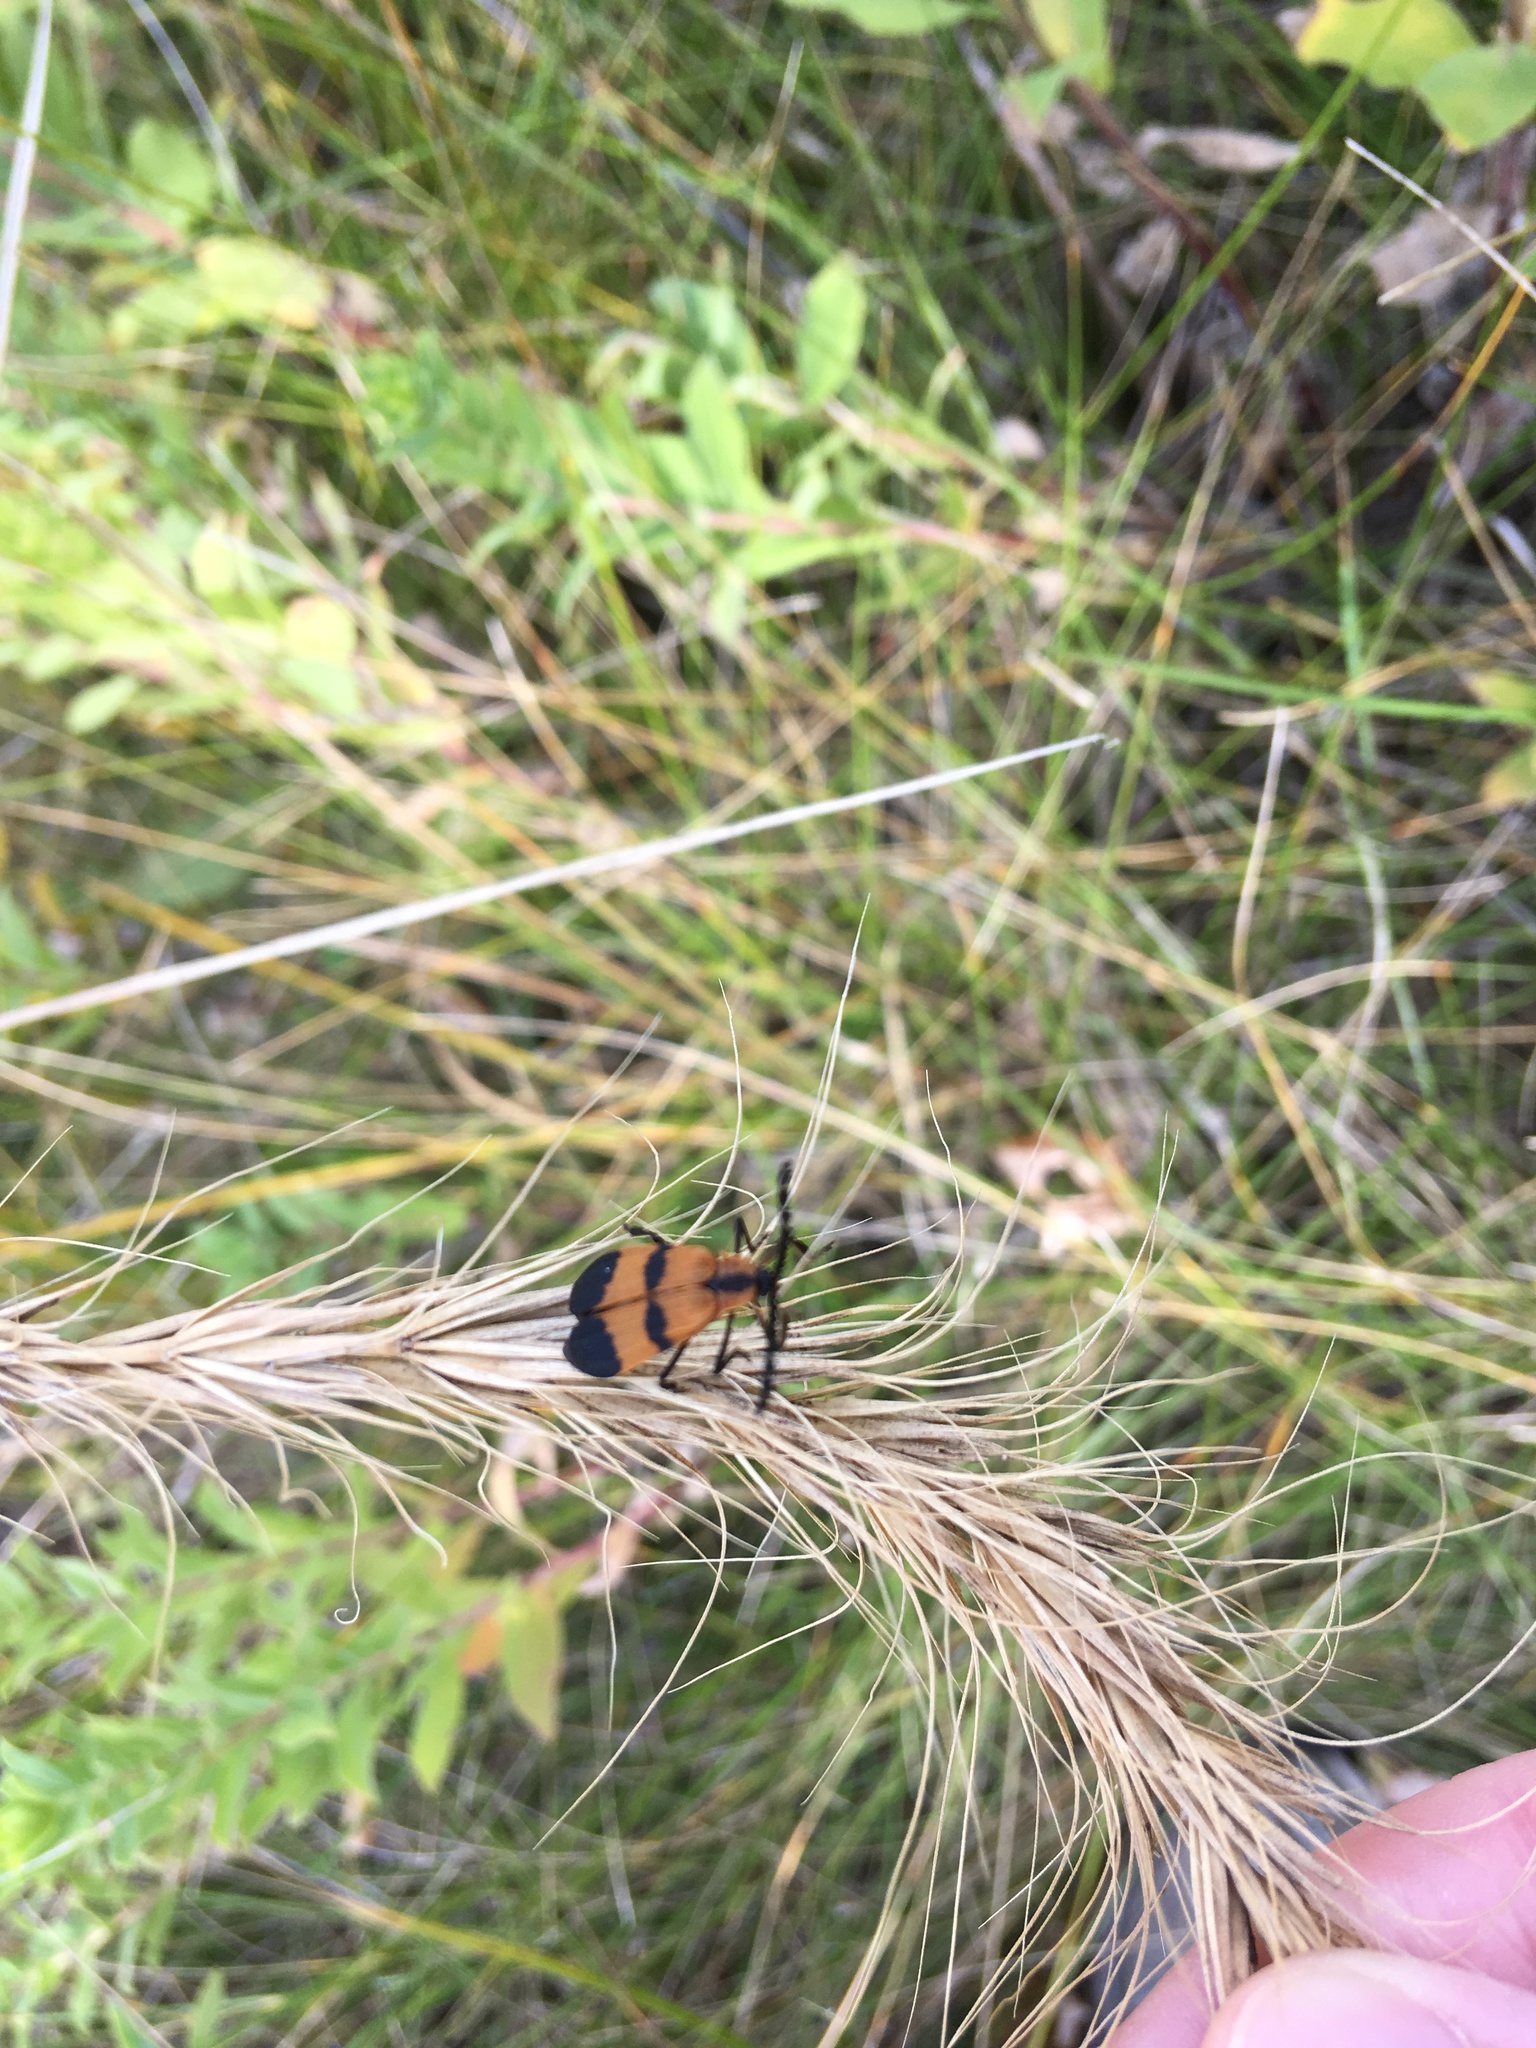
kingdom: Animalia
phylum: Arthropoda
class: Insecta
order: Coleoptera
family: Lycidae
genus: Calopteron
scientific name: Calopteron reticulatum
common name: Banded net-winged beetle
